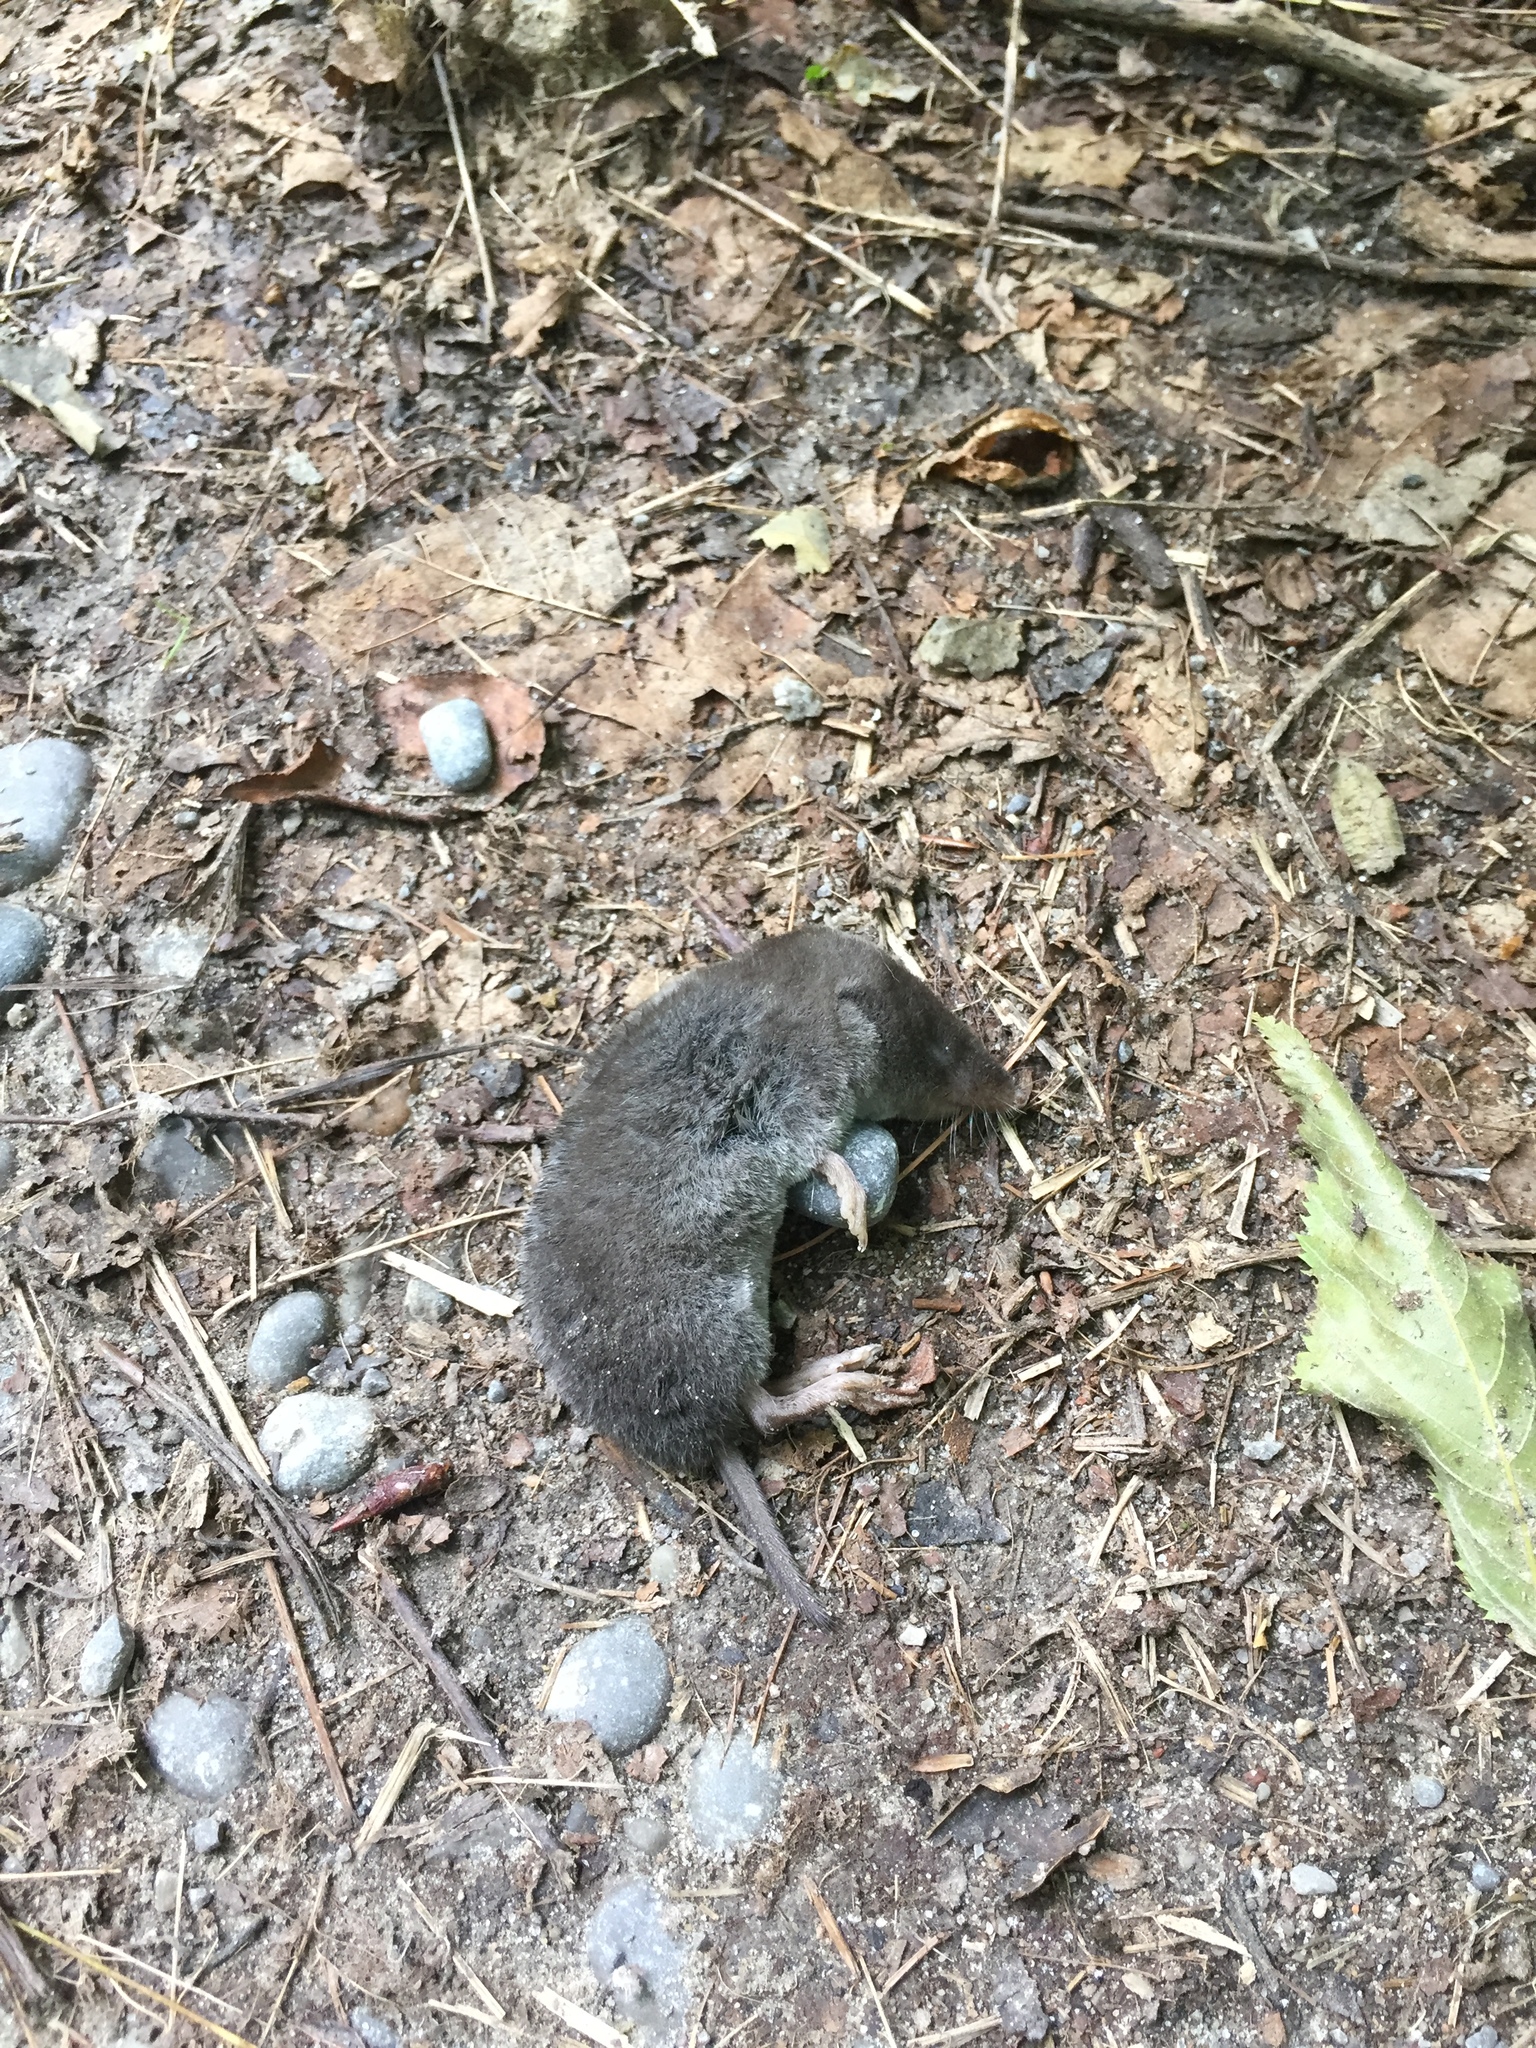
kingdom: Animalia
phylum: Chordata
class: Mammalia
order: Soricomorpha
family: Soricidae
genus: Blarina
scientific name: Blarina brevicauda
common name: Northern short-tailed shrew
